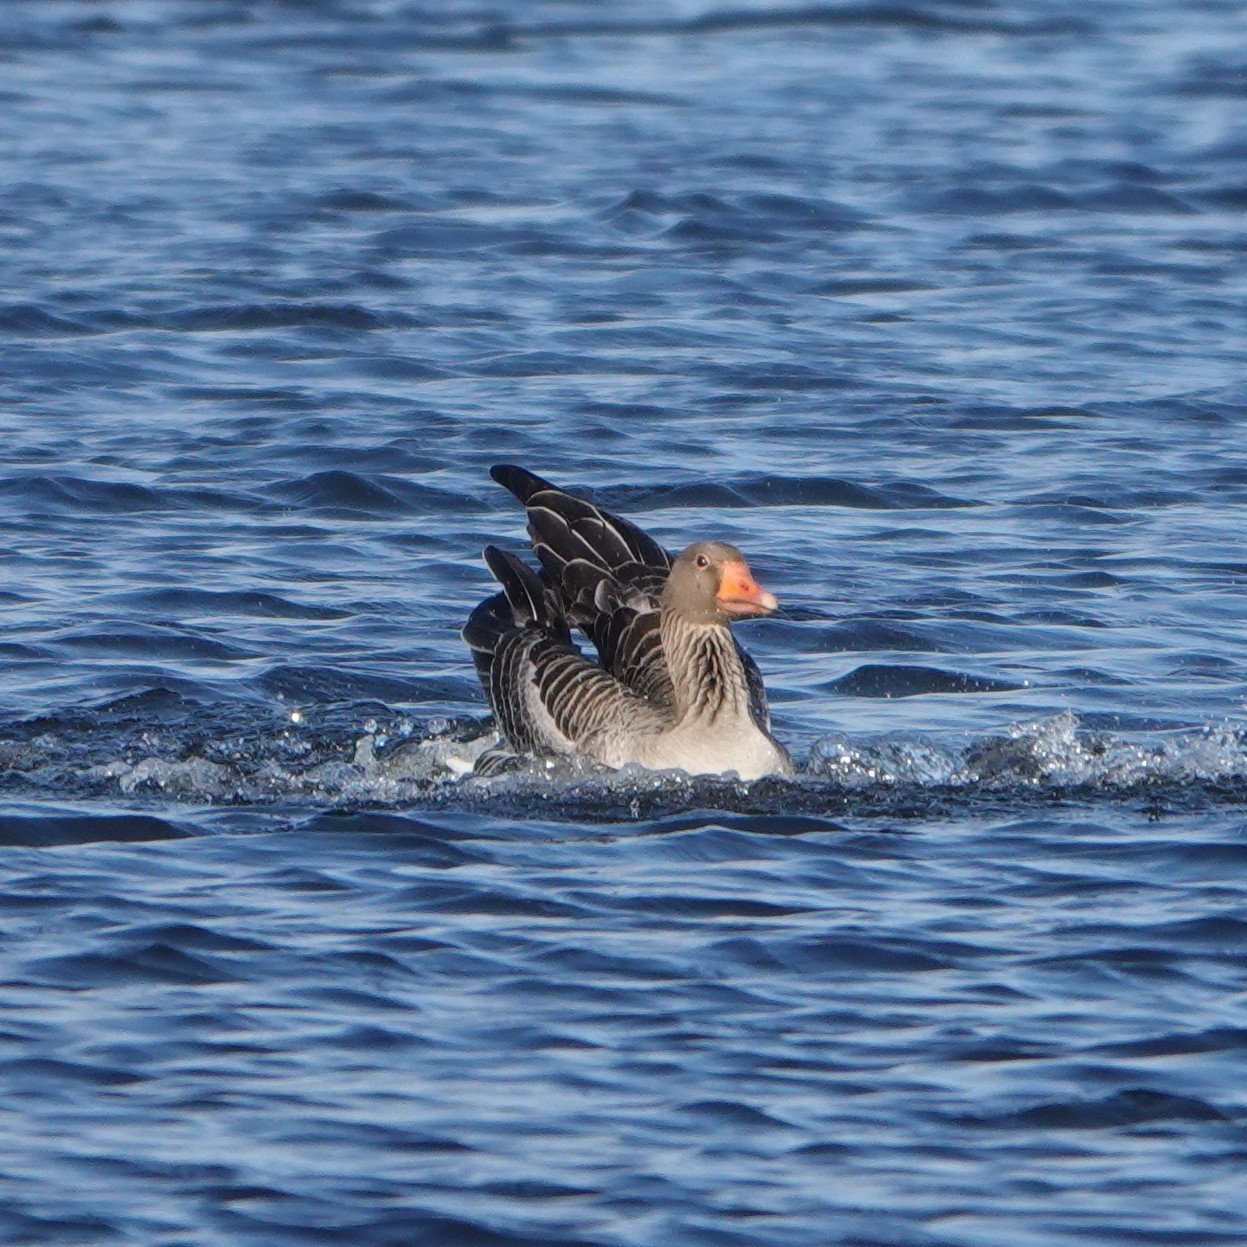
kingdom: Animalia
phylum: Chordata
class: Aves
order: Anseriformes
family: Anatidae
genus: Anser
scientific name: Anser anser
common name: Greylag goose
